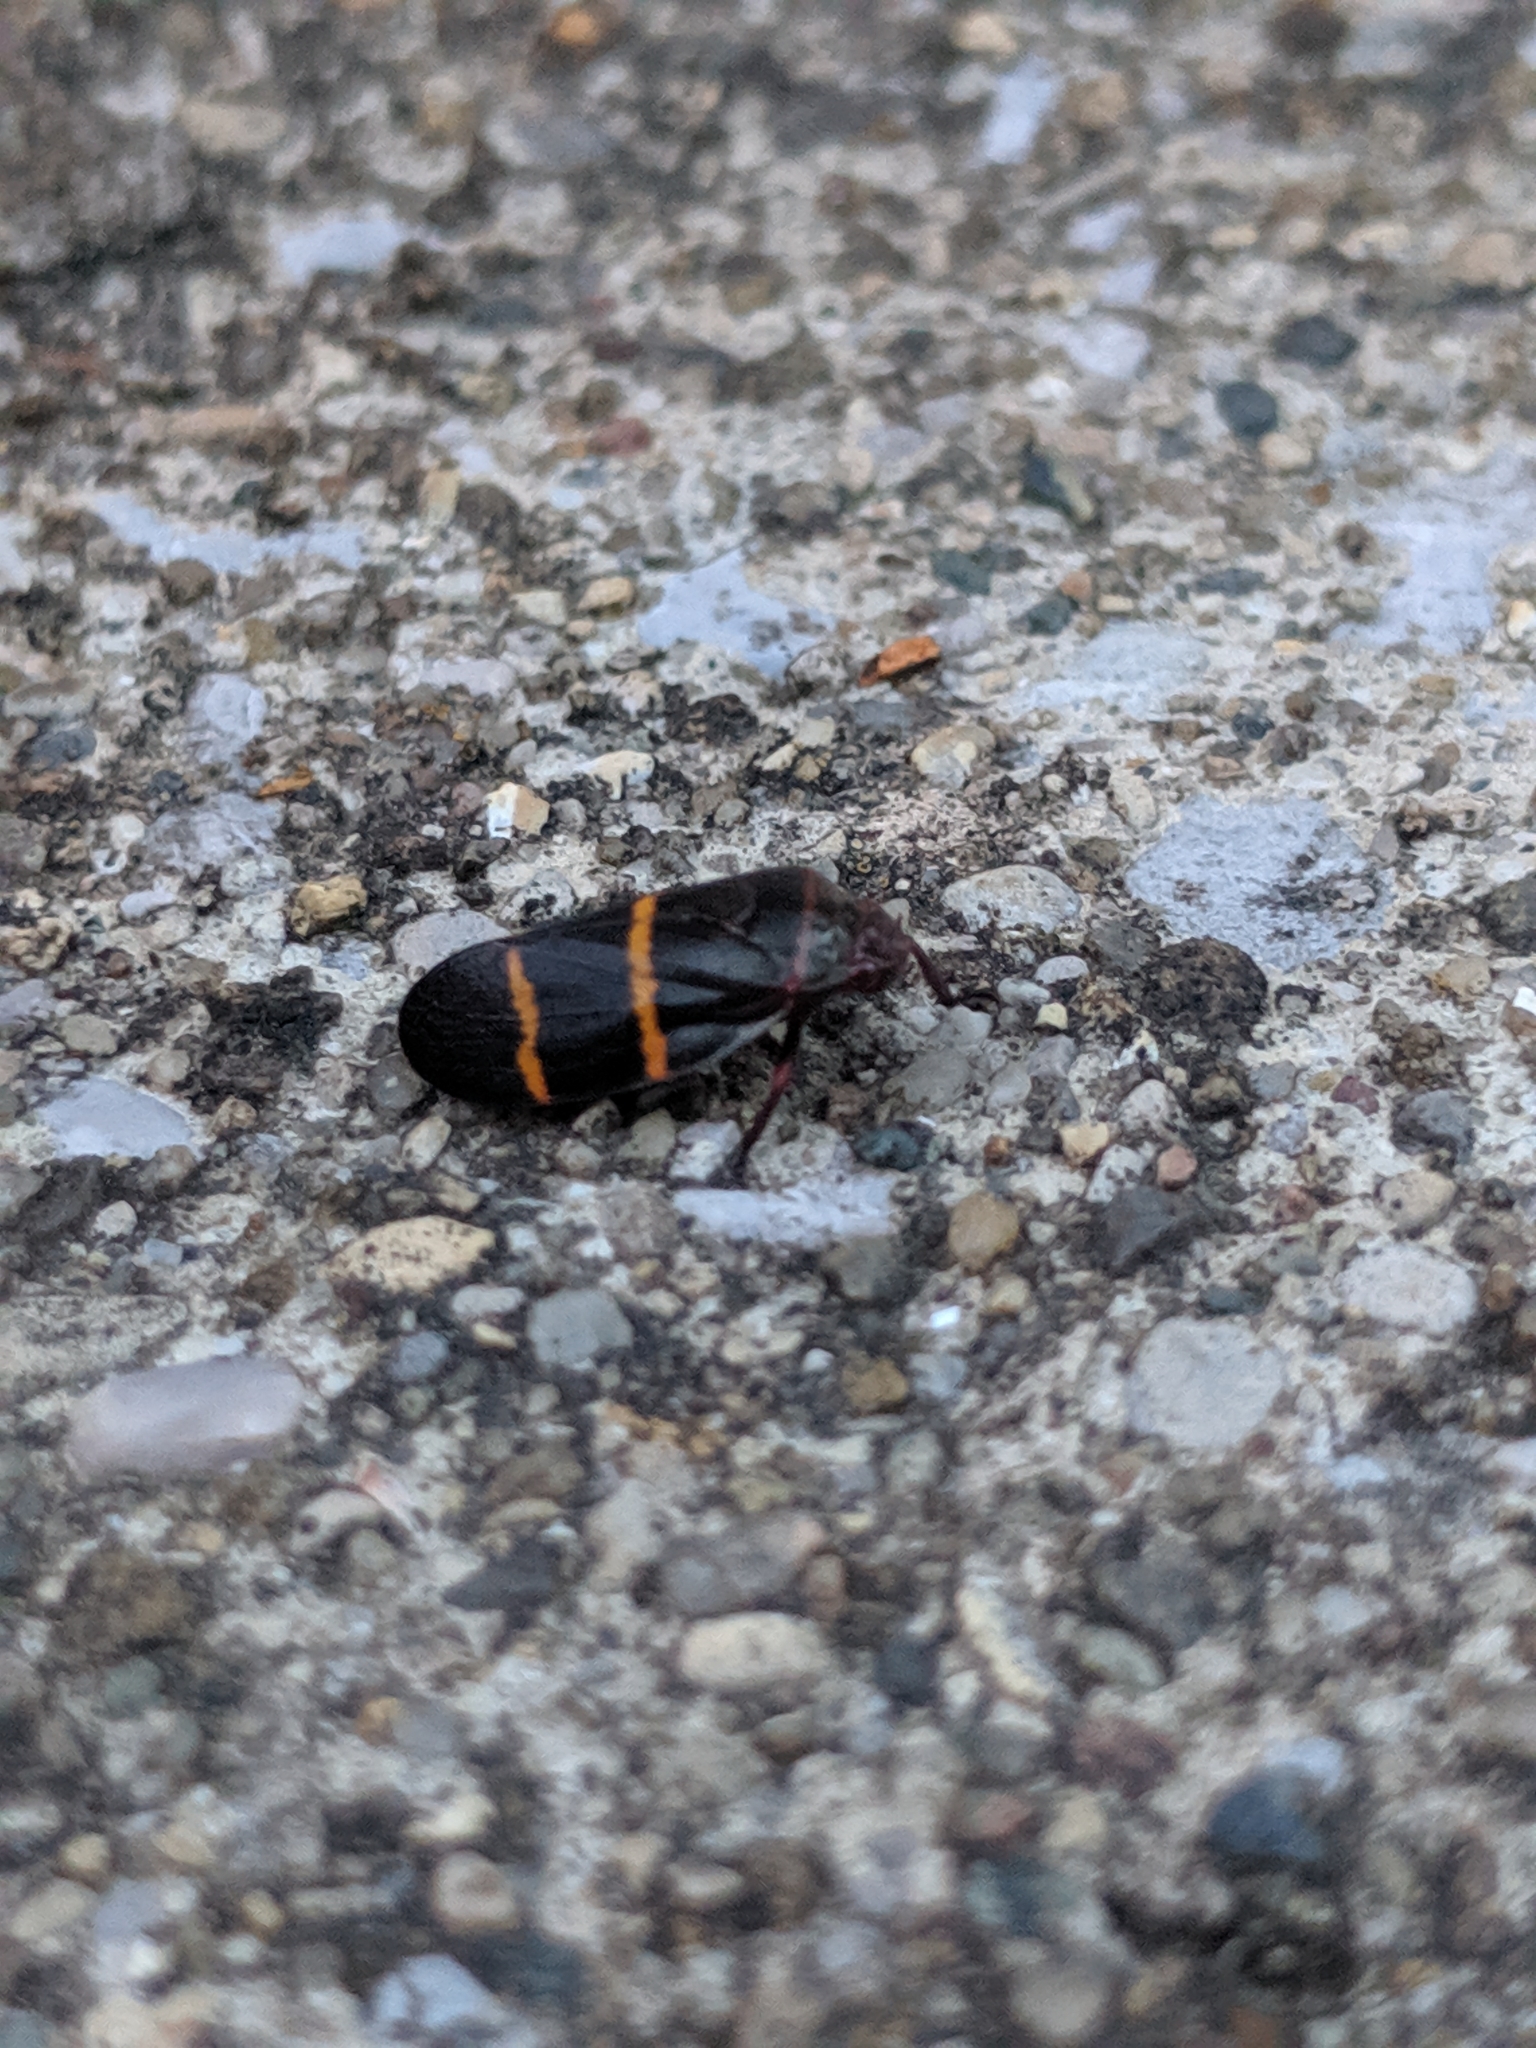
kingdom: Animalia
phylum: Arthropoda
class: Insecta
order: Hemiptera
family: Cercopidae
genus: Prosapia
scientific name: Prosapia bicincta
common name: Twolined spittlebug
